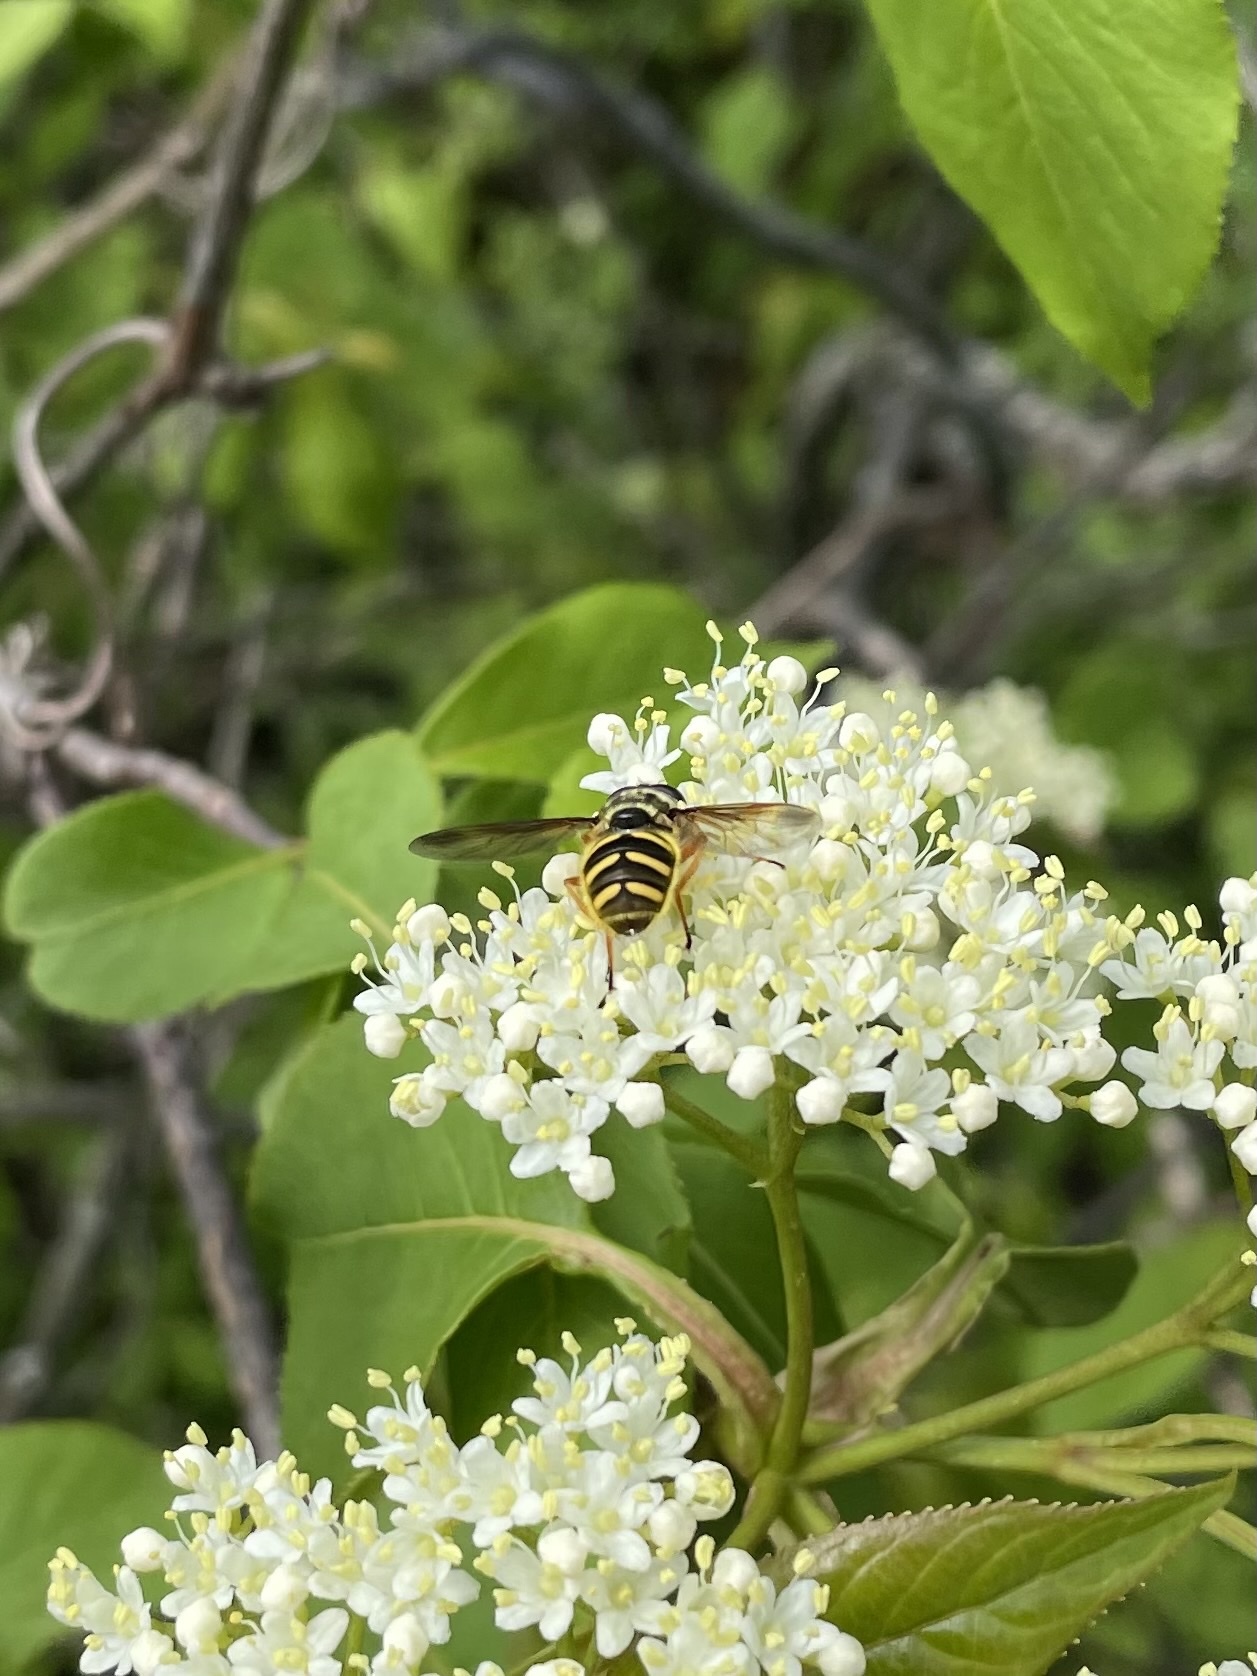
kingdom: Animalia
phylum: Arthropoda
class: Insecta
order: Diptera
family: Syrphidae
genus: Sericomyia
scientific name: Sericomyia chrysotoxoides
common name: Oblique-banded pond fly
